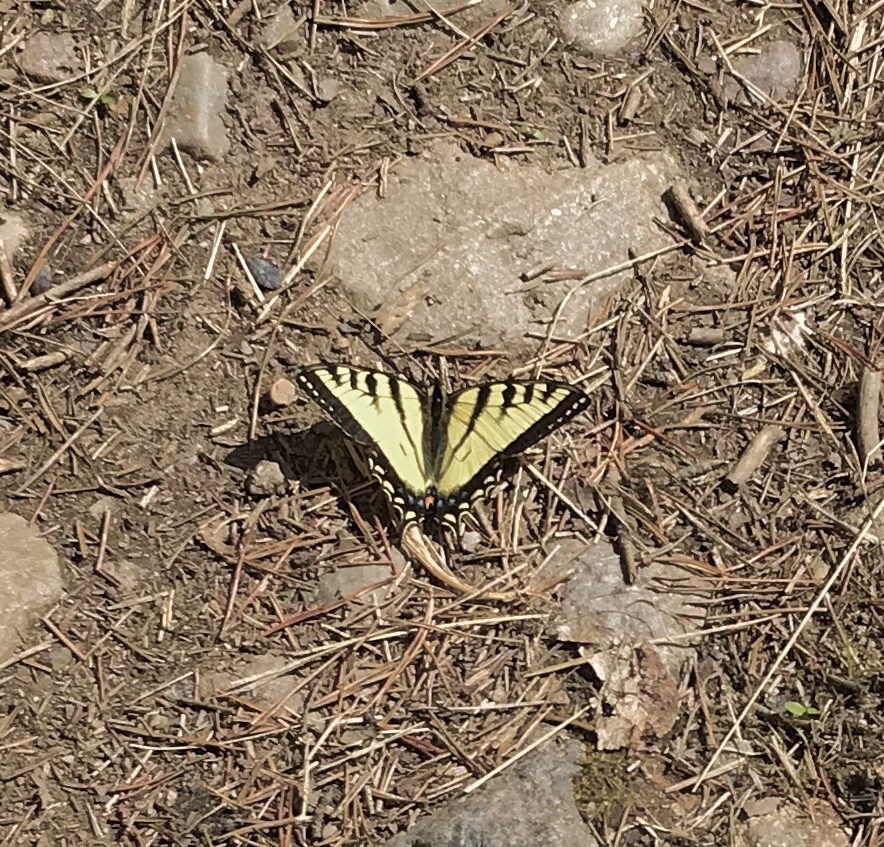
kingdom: Animalia
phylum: Arthropoda
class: Insecta
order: Lepidoptera
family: Papilionidae
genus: Papilio
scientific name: Papilio canadensis
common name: Canadian tiger swallowtail
